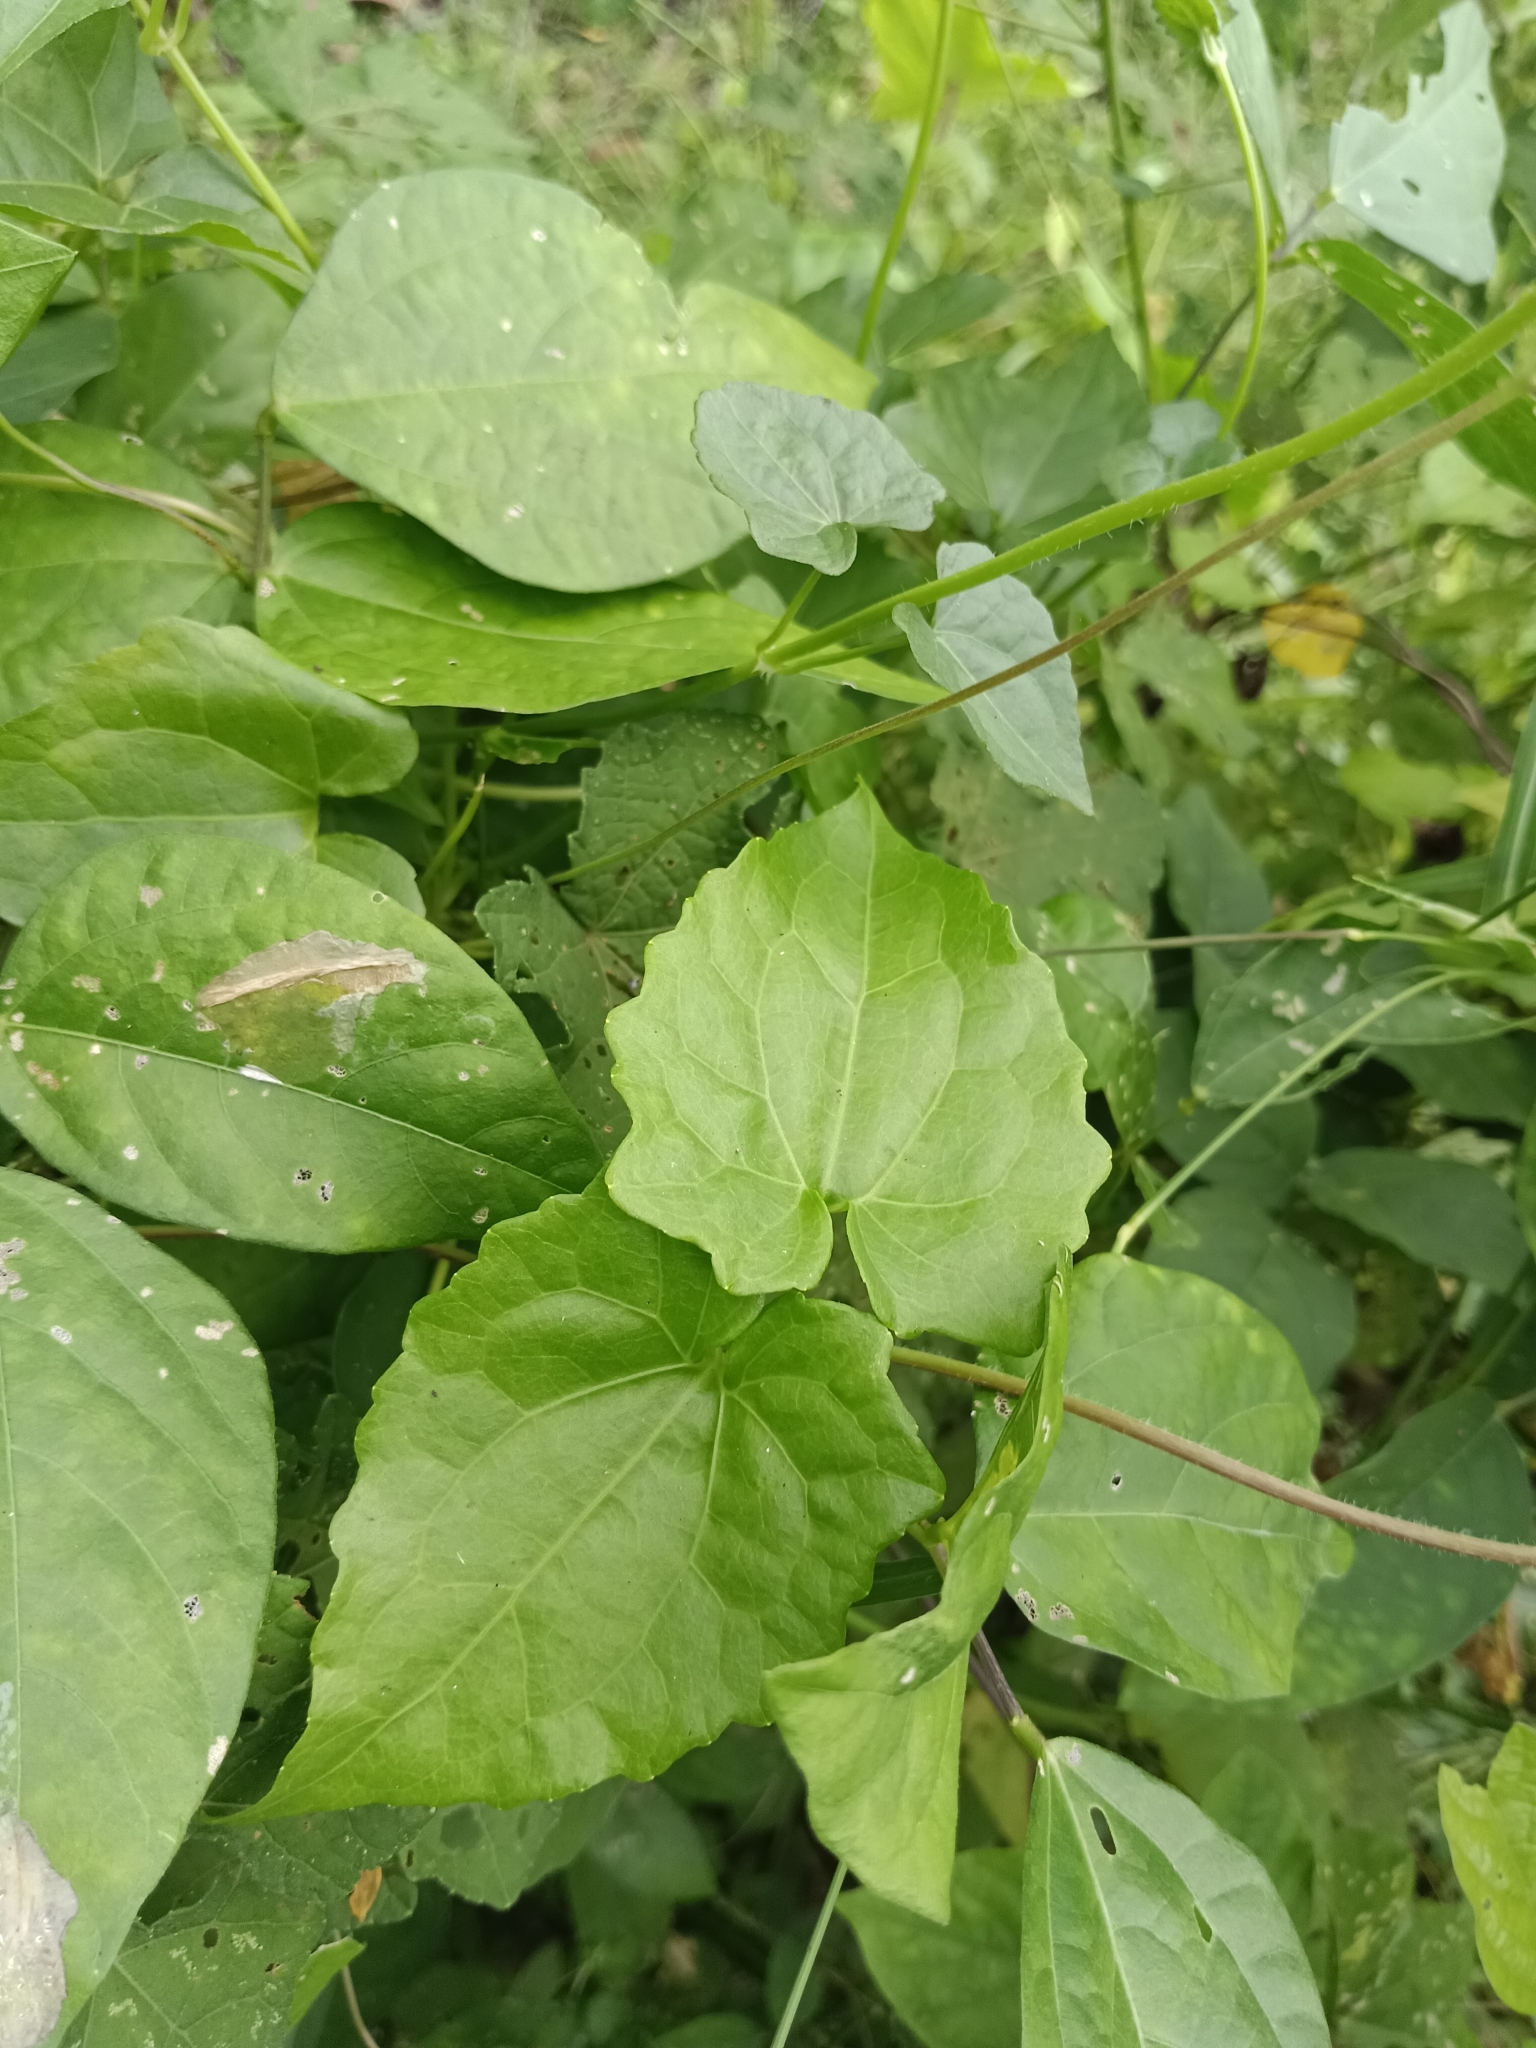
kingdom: Plantae
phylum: Tracheophyta
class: Magnoliopsida
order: Asterales
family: Asteraceae
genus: Mikania
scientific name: Mikania micrantha
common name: Mile-a-minute
